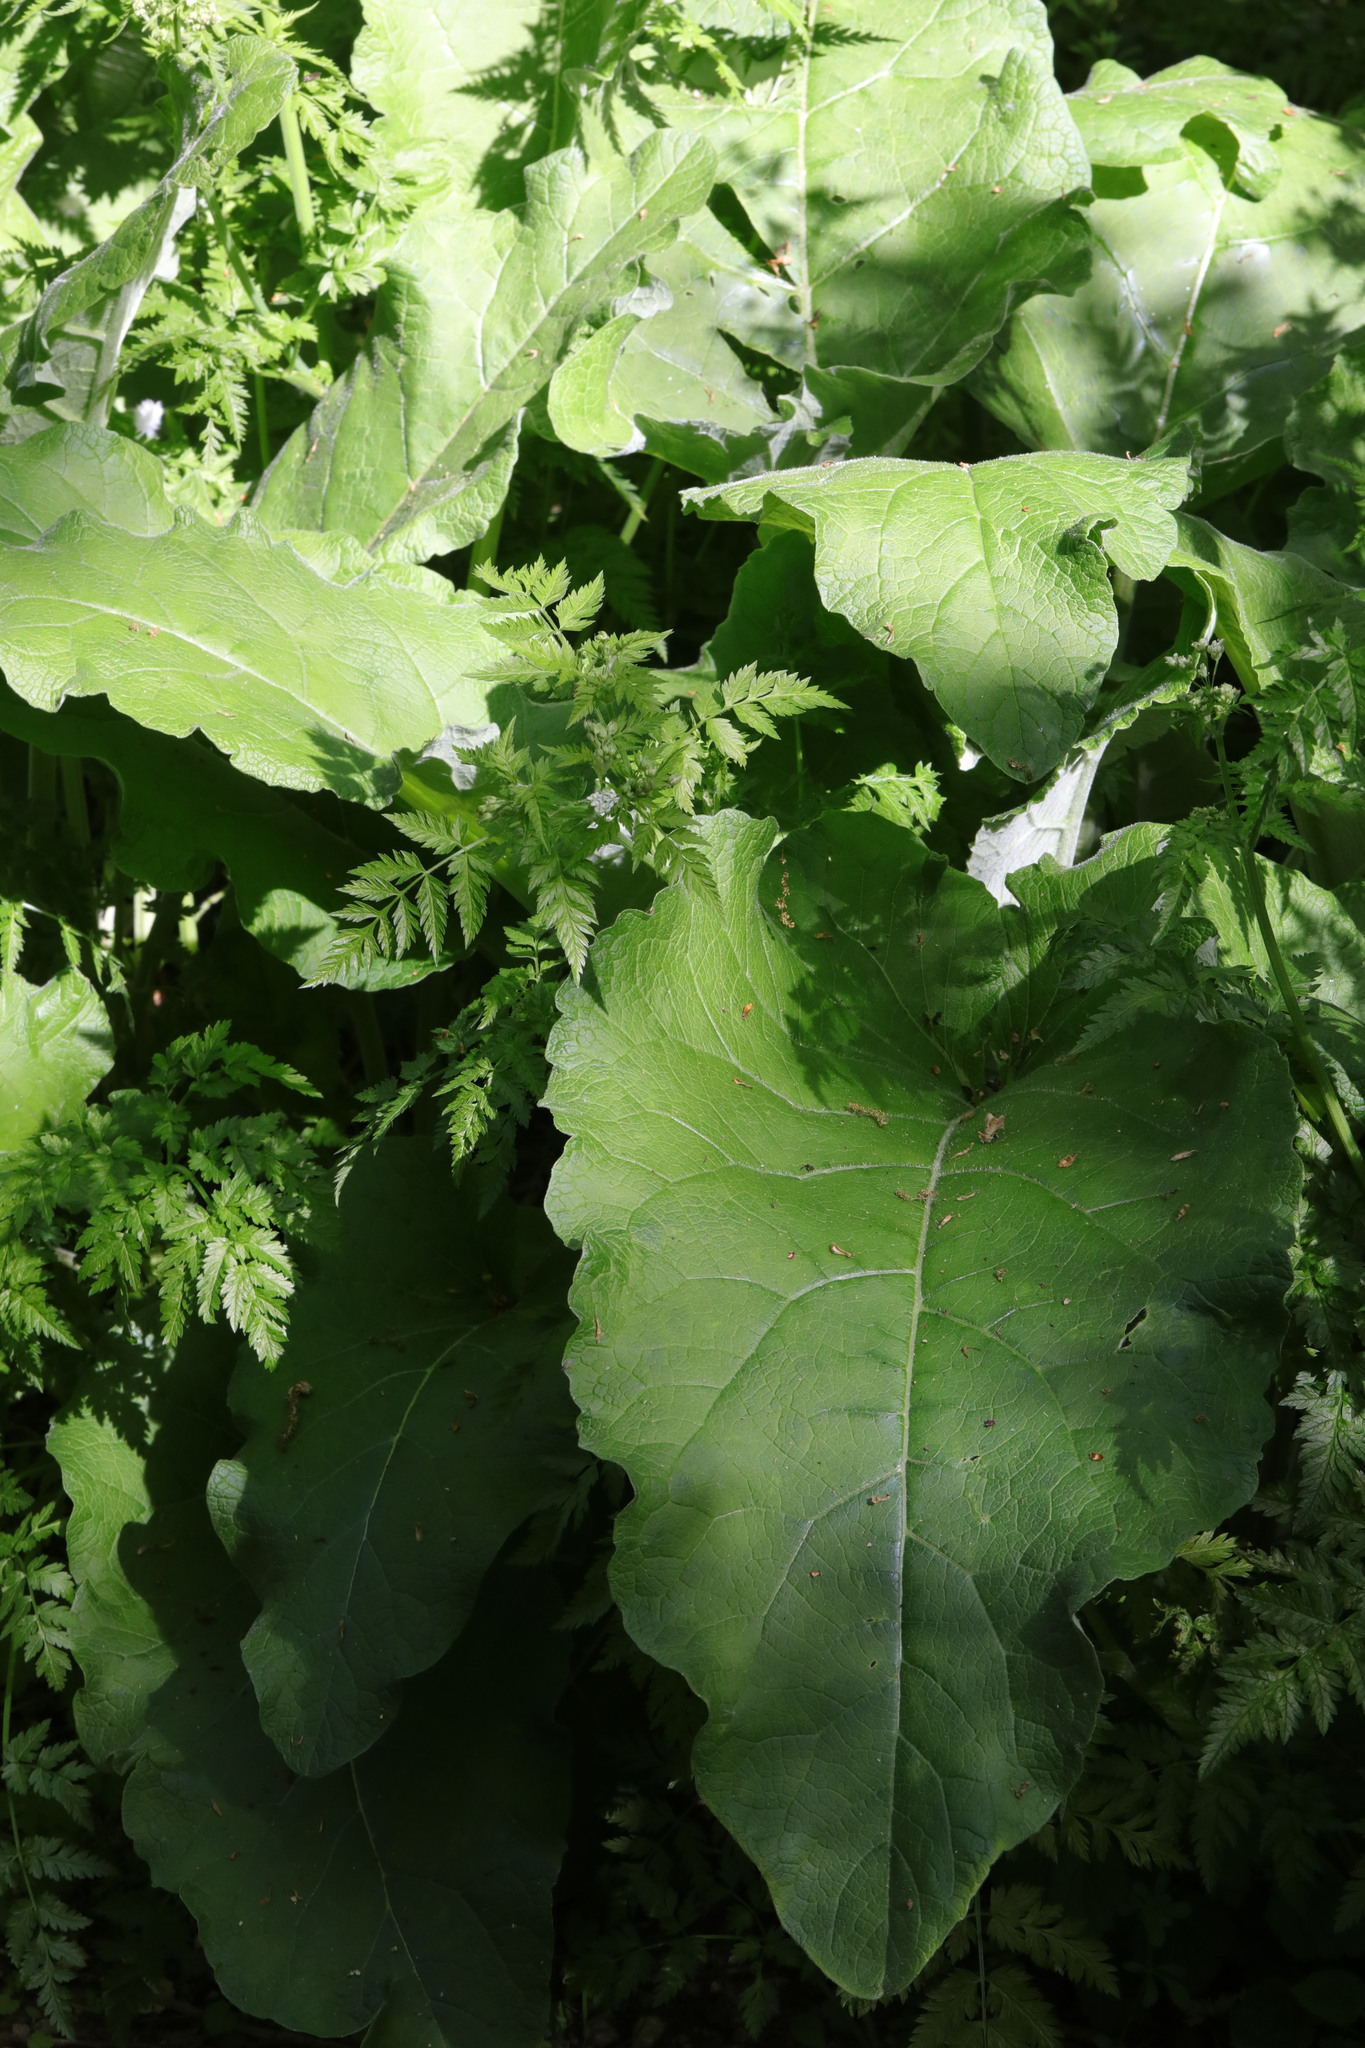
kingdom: Plantae
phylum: Tracheophyta
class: Magnoliopsida
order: Asterales
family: Asteraceae
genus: Arctium
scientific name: Arctium minus
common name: Lesser burdock
